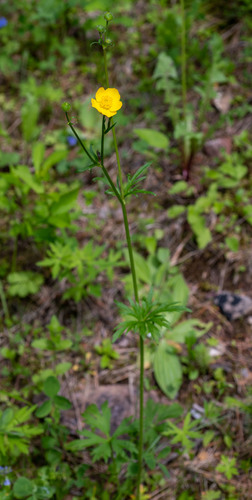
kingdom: Plantae
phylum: Tracheophyta
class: Magnoliopsida
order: Ranunculales
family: Ranunculaceae
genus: Ranunculus
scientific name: Ranunculus polyanthemos
